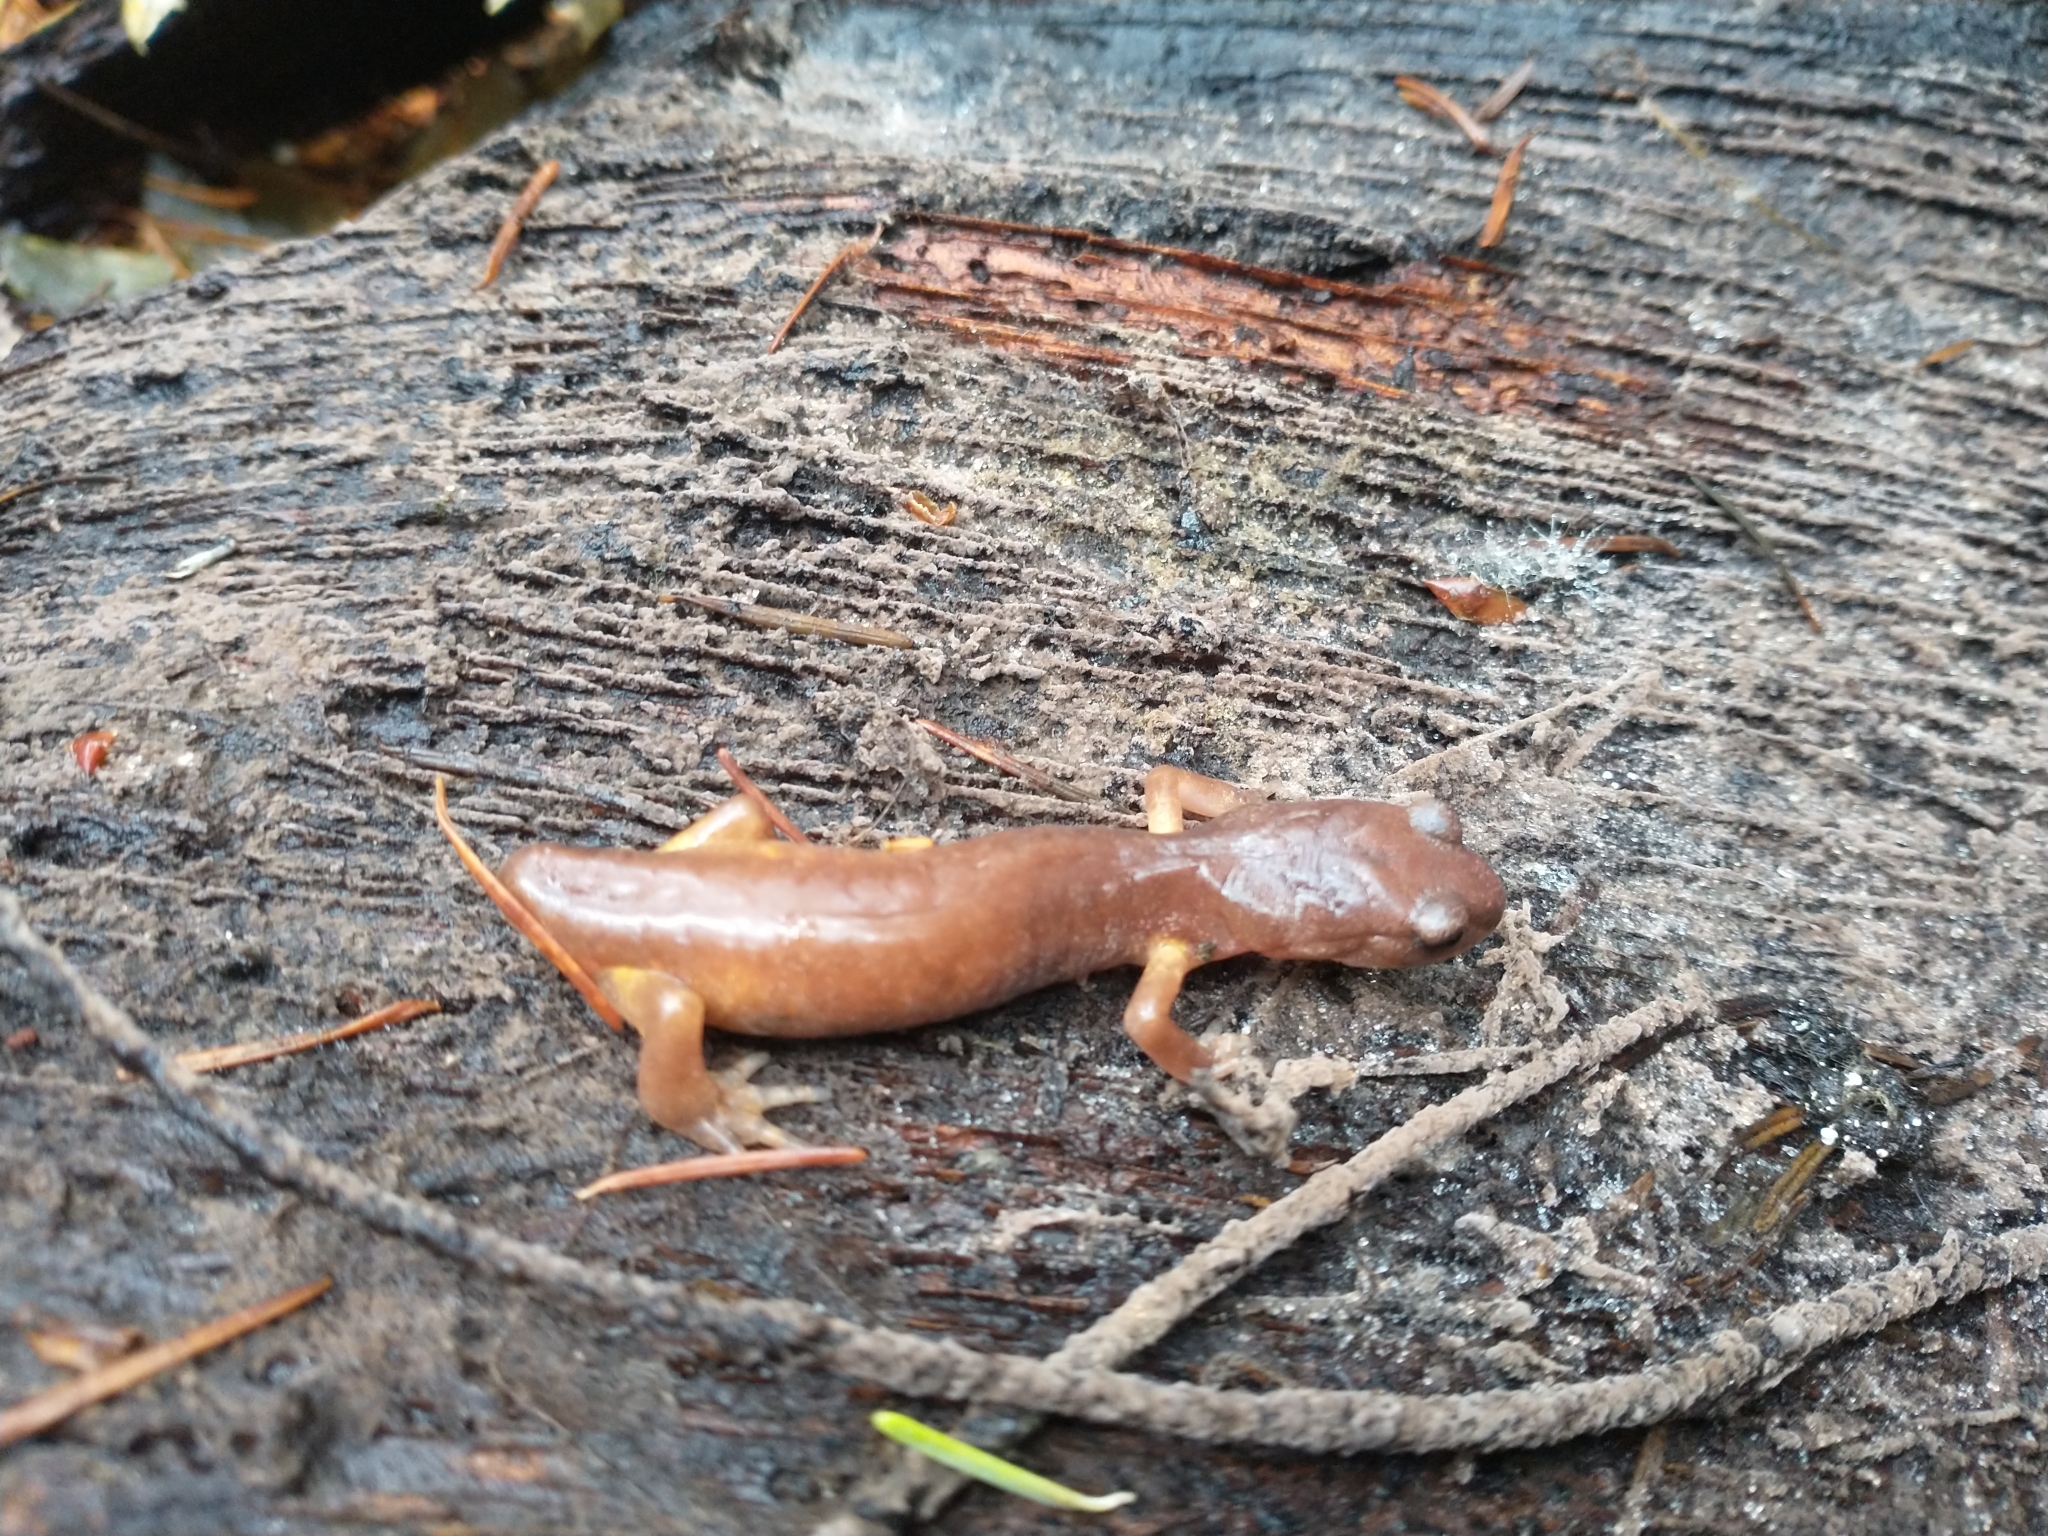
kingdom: Animalia
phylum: Chordata
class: Amphibia
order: Caudata
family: Plethodontidae
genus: Ensatina
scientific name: Ensatina eschscholtzii
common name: Ensatina
